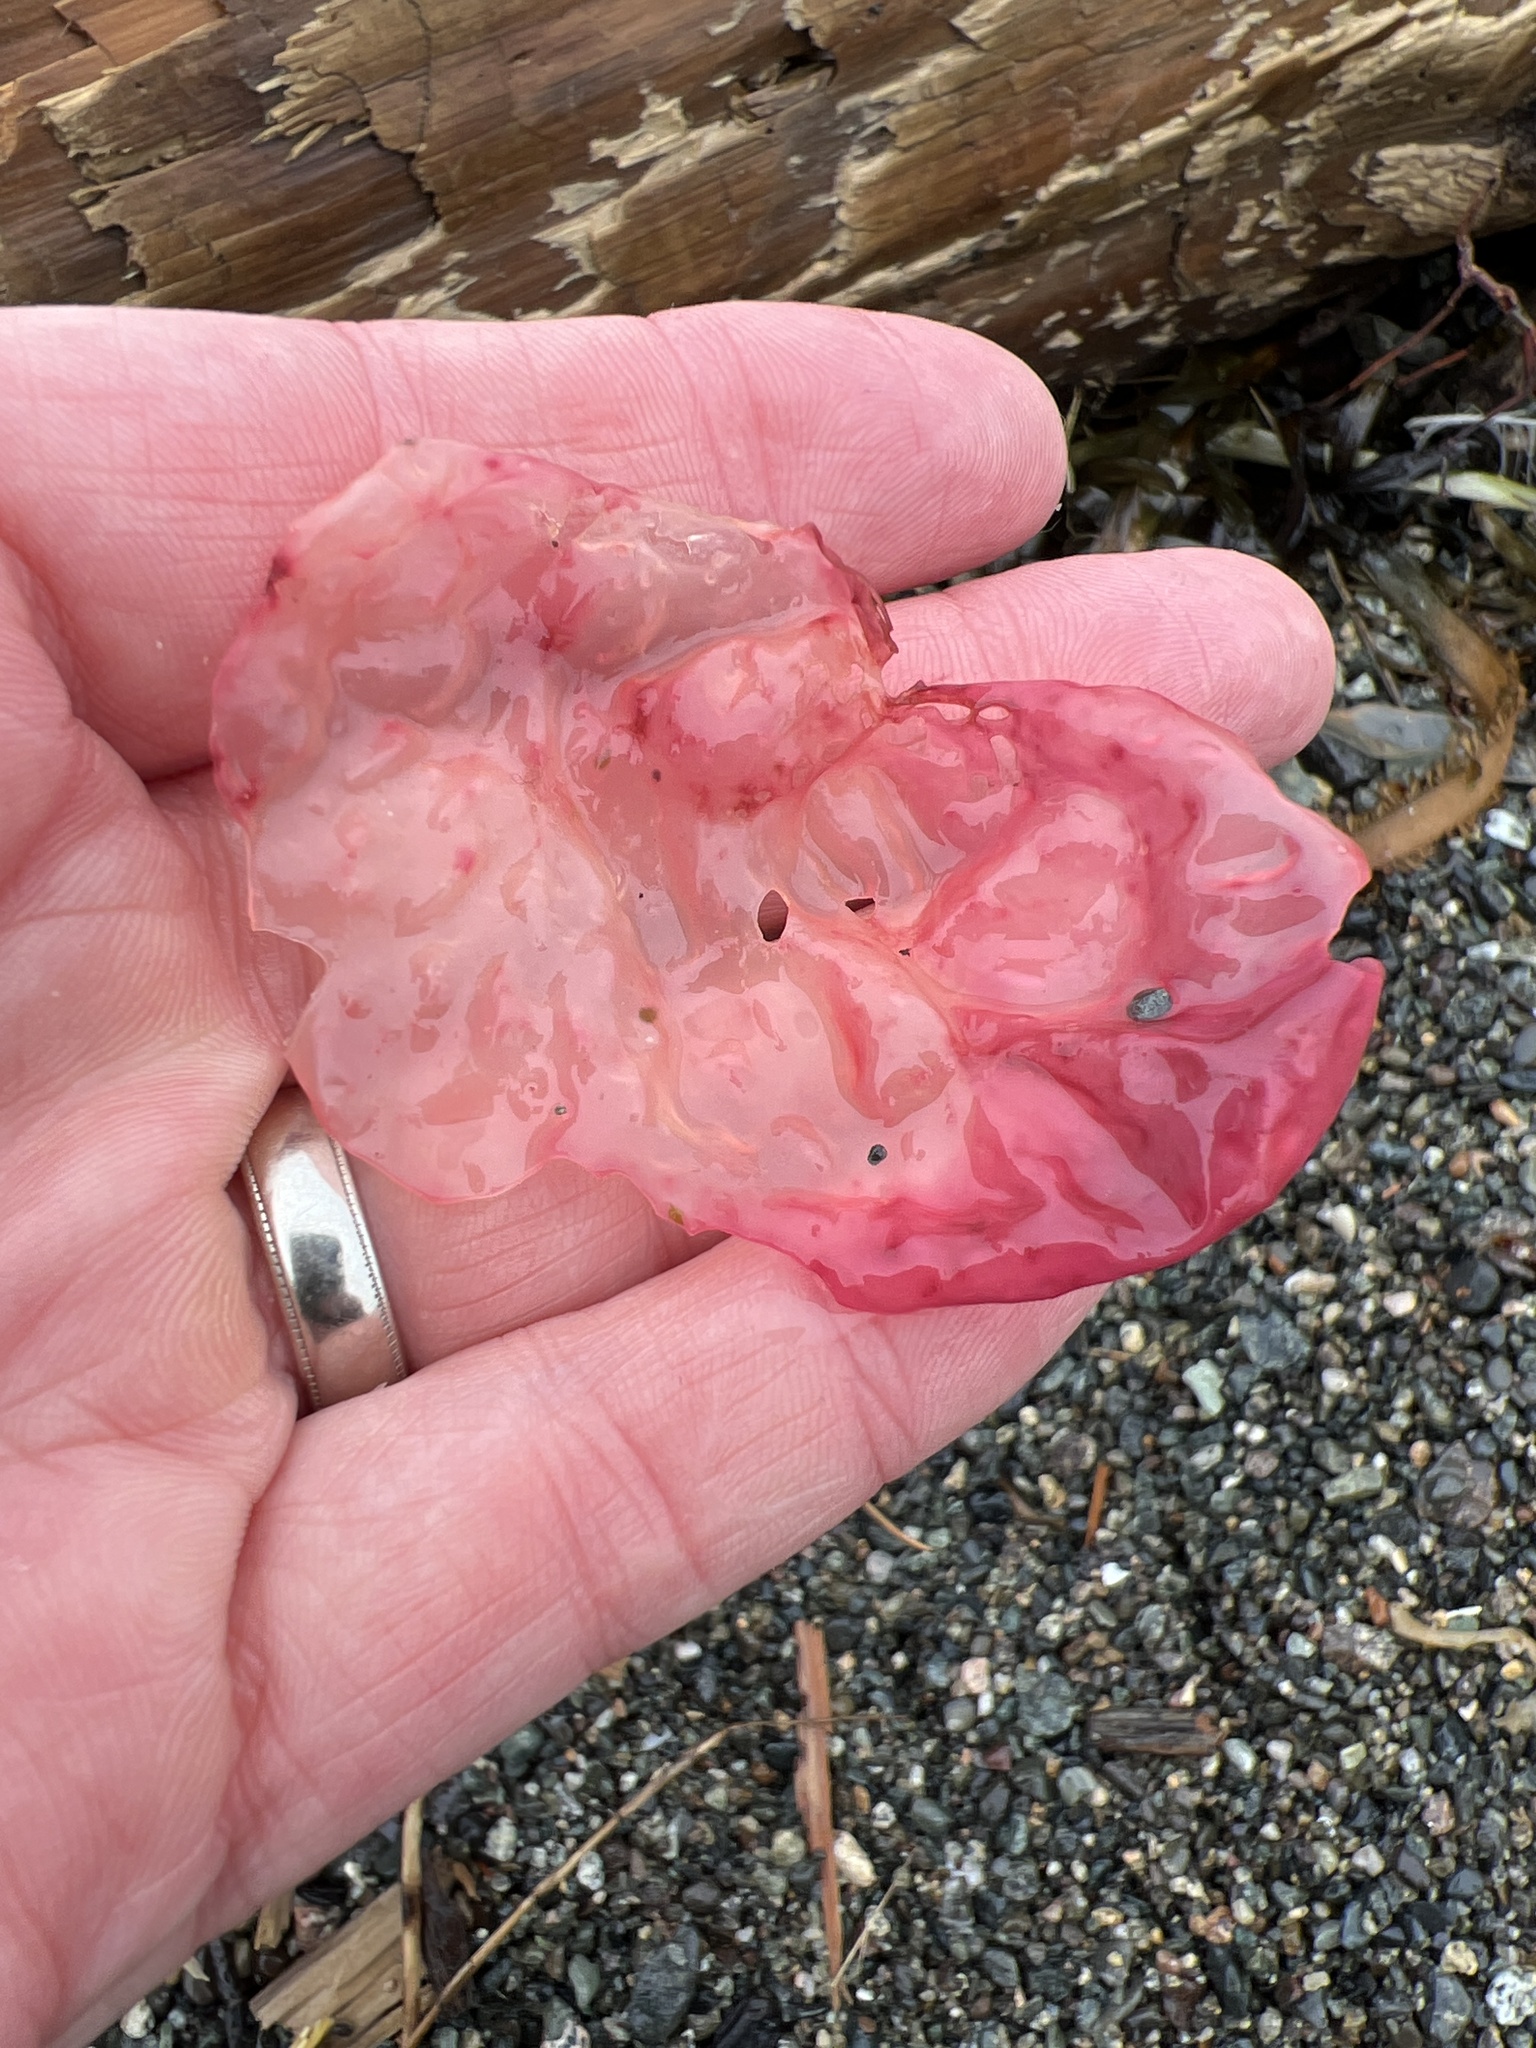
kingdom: Plantae
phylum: Rhodophyta
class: Florideophyceae
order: Gigartinales
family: Gigartinaceae
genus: Chondracanthus
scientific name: Chondracanthus exasperatus
